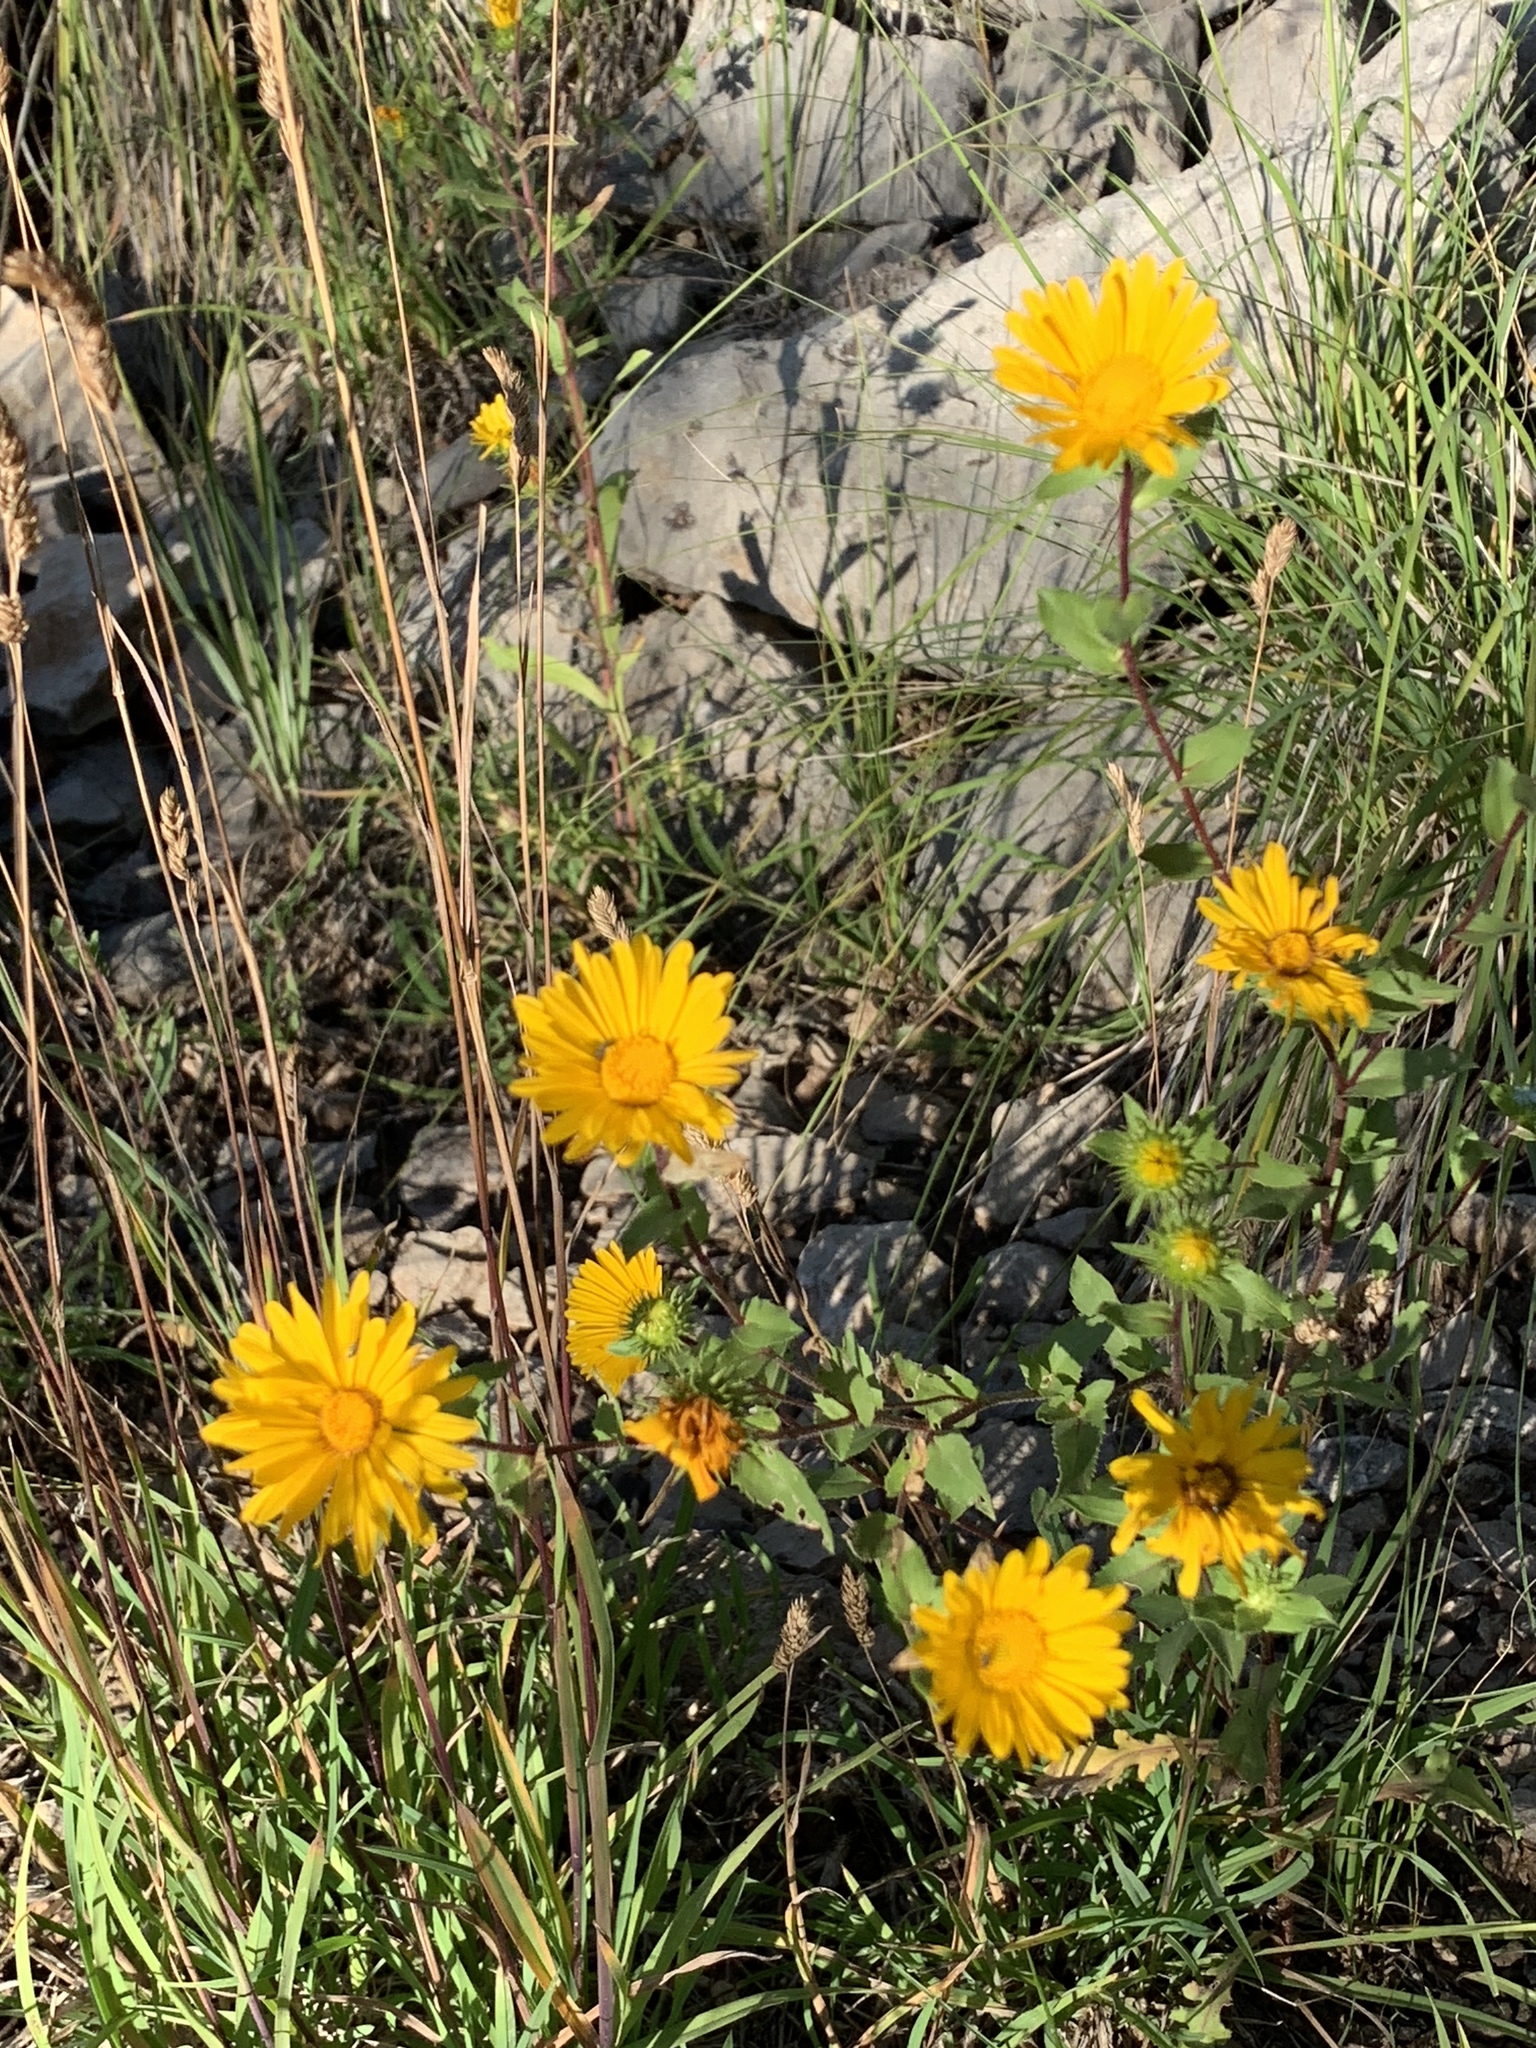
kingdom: Plantae
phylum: Tracheophyta
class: Magnoliopsida
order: Asterales
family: Asteraceae
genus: Grindelia
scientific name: Grindelia scabra
